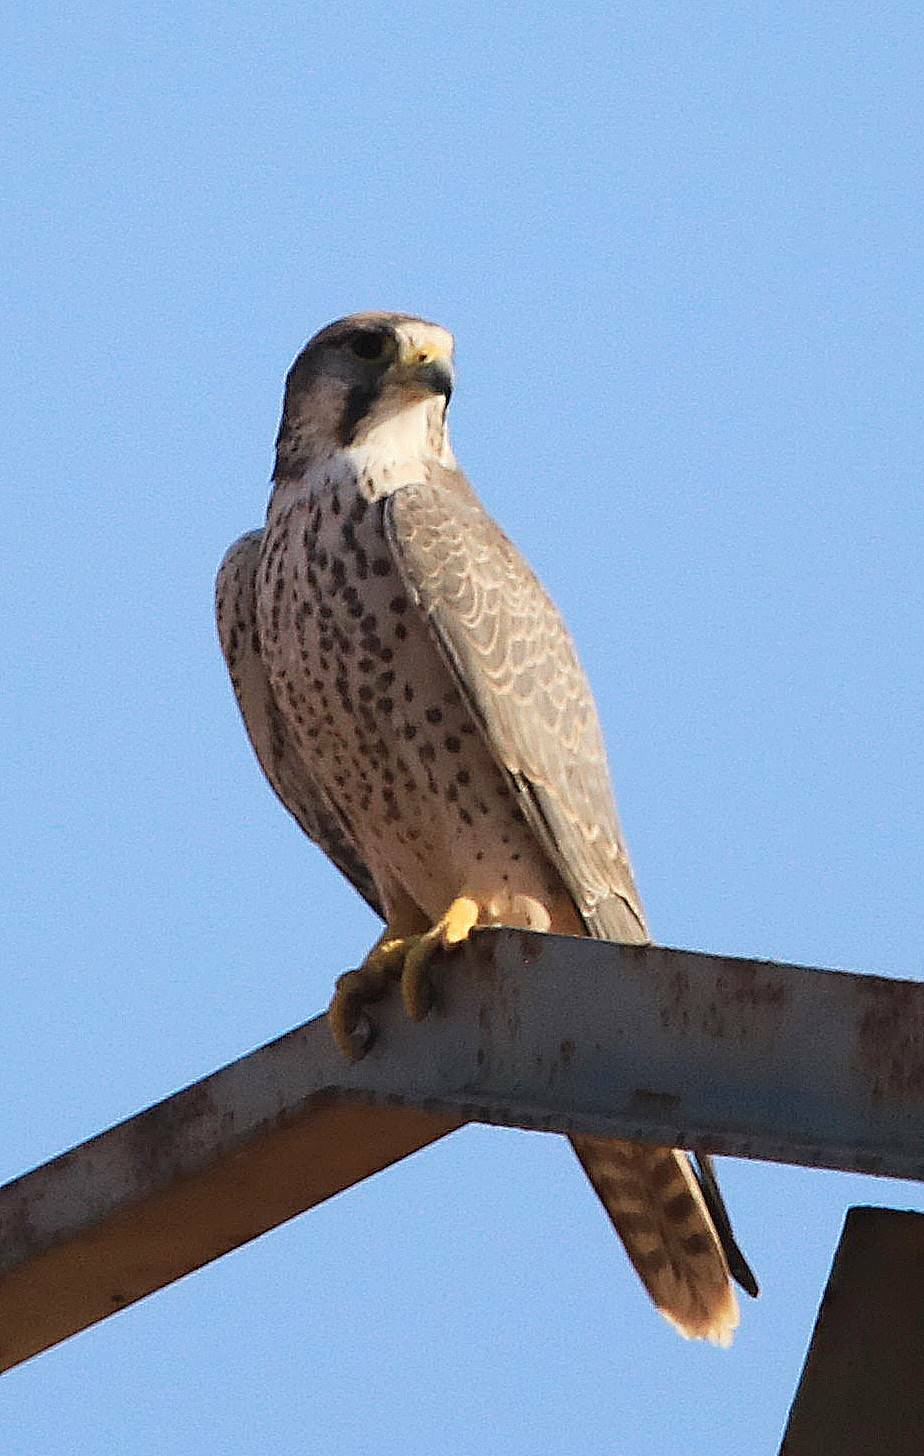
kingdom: Animalia
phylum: Chordata
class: Aves
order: Falconiformes
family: Falconidae
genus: Falco
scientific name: Falco biarmicus
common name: Lanner falcon
